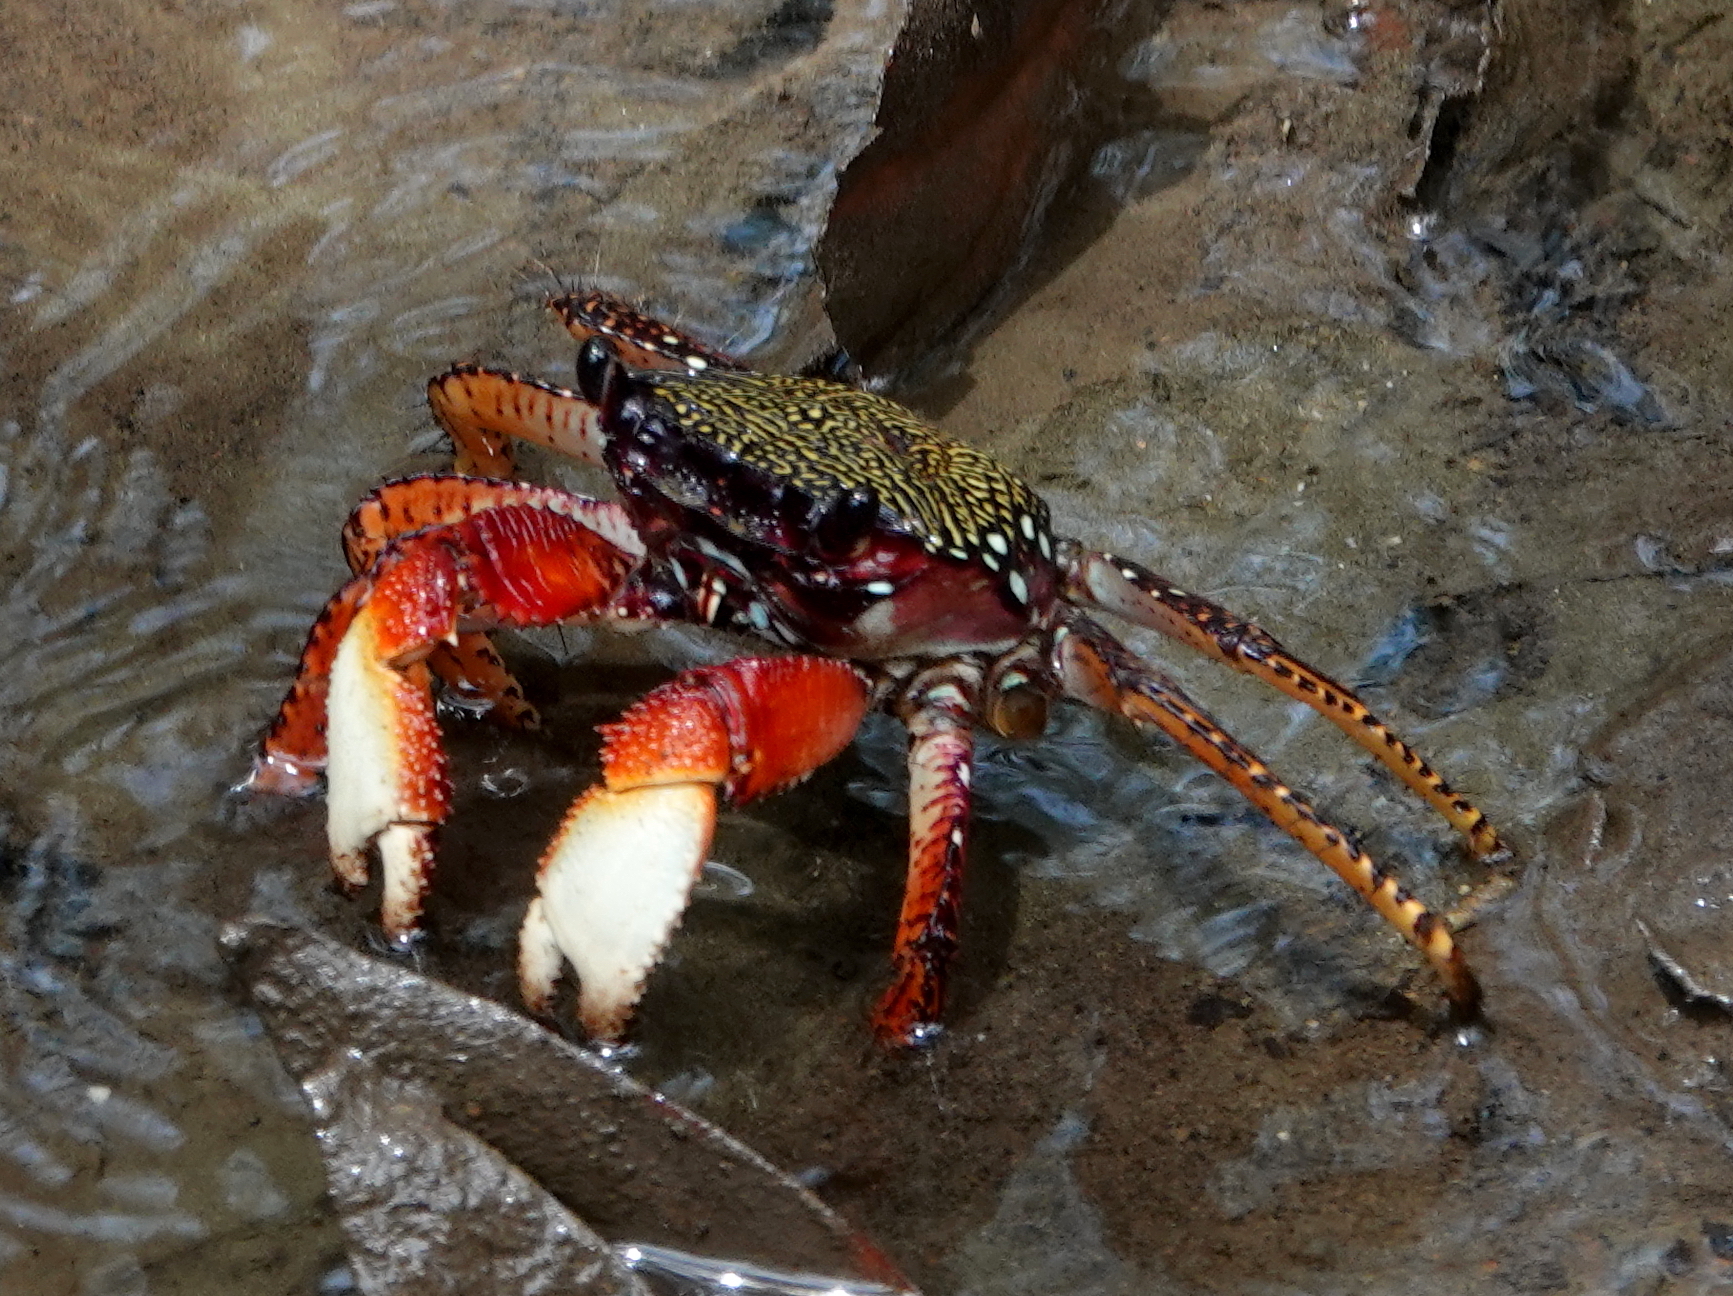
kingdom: Animalia
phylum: Arthropoda
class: Malacostraca
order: Decapoda
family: Grapsidae
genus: Goniopsis
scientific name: Goniopsis pulchra
